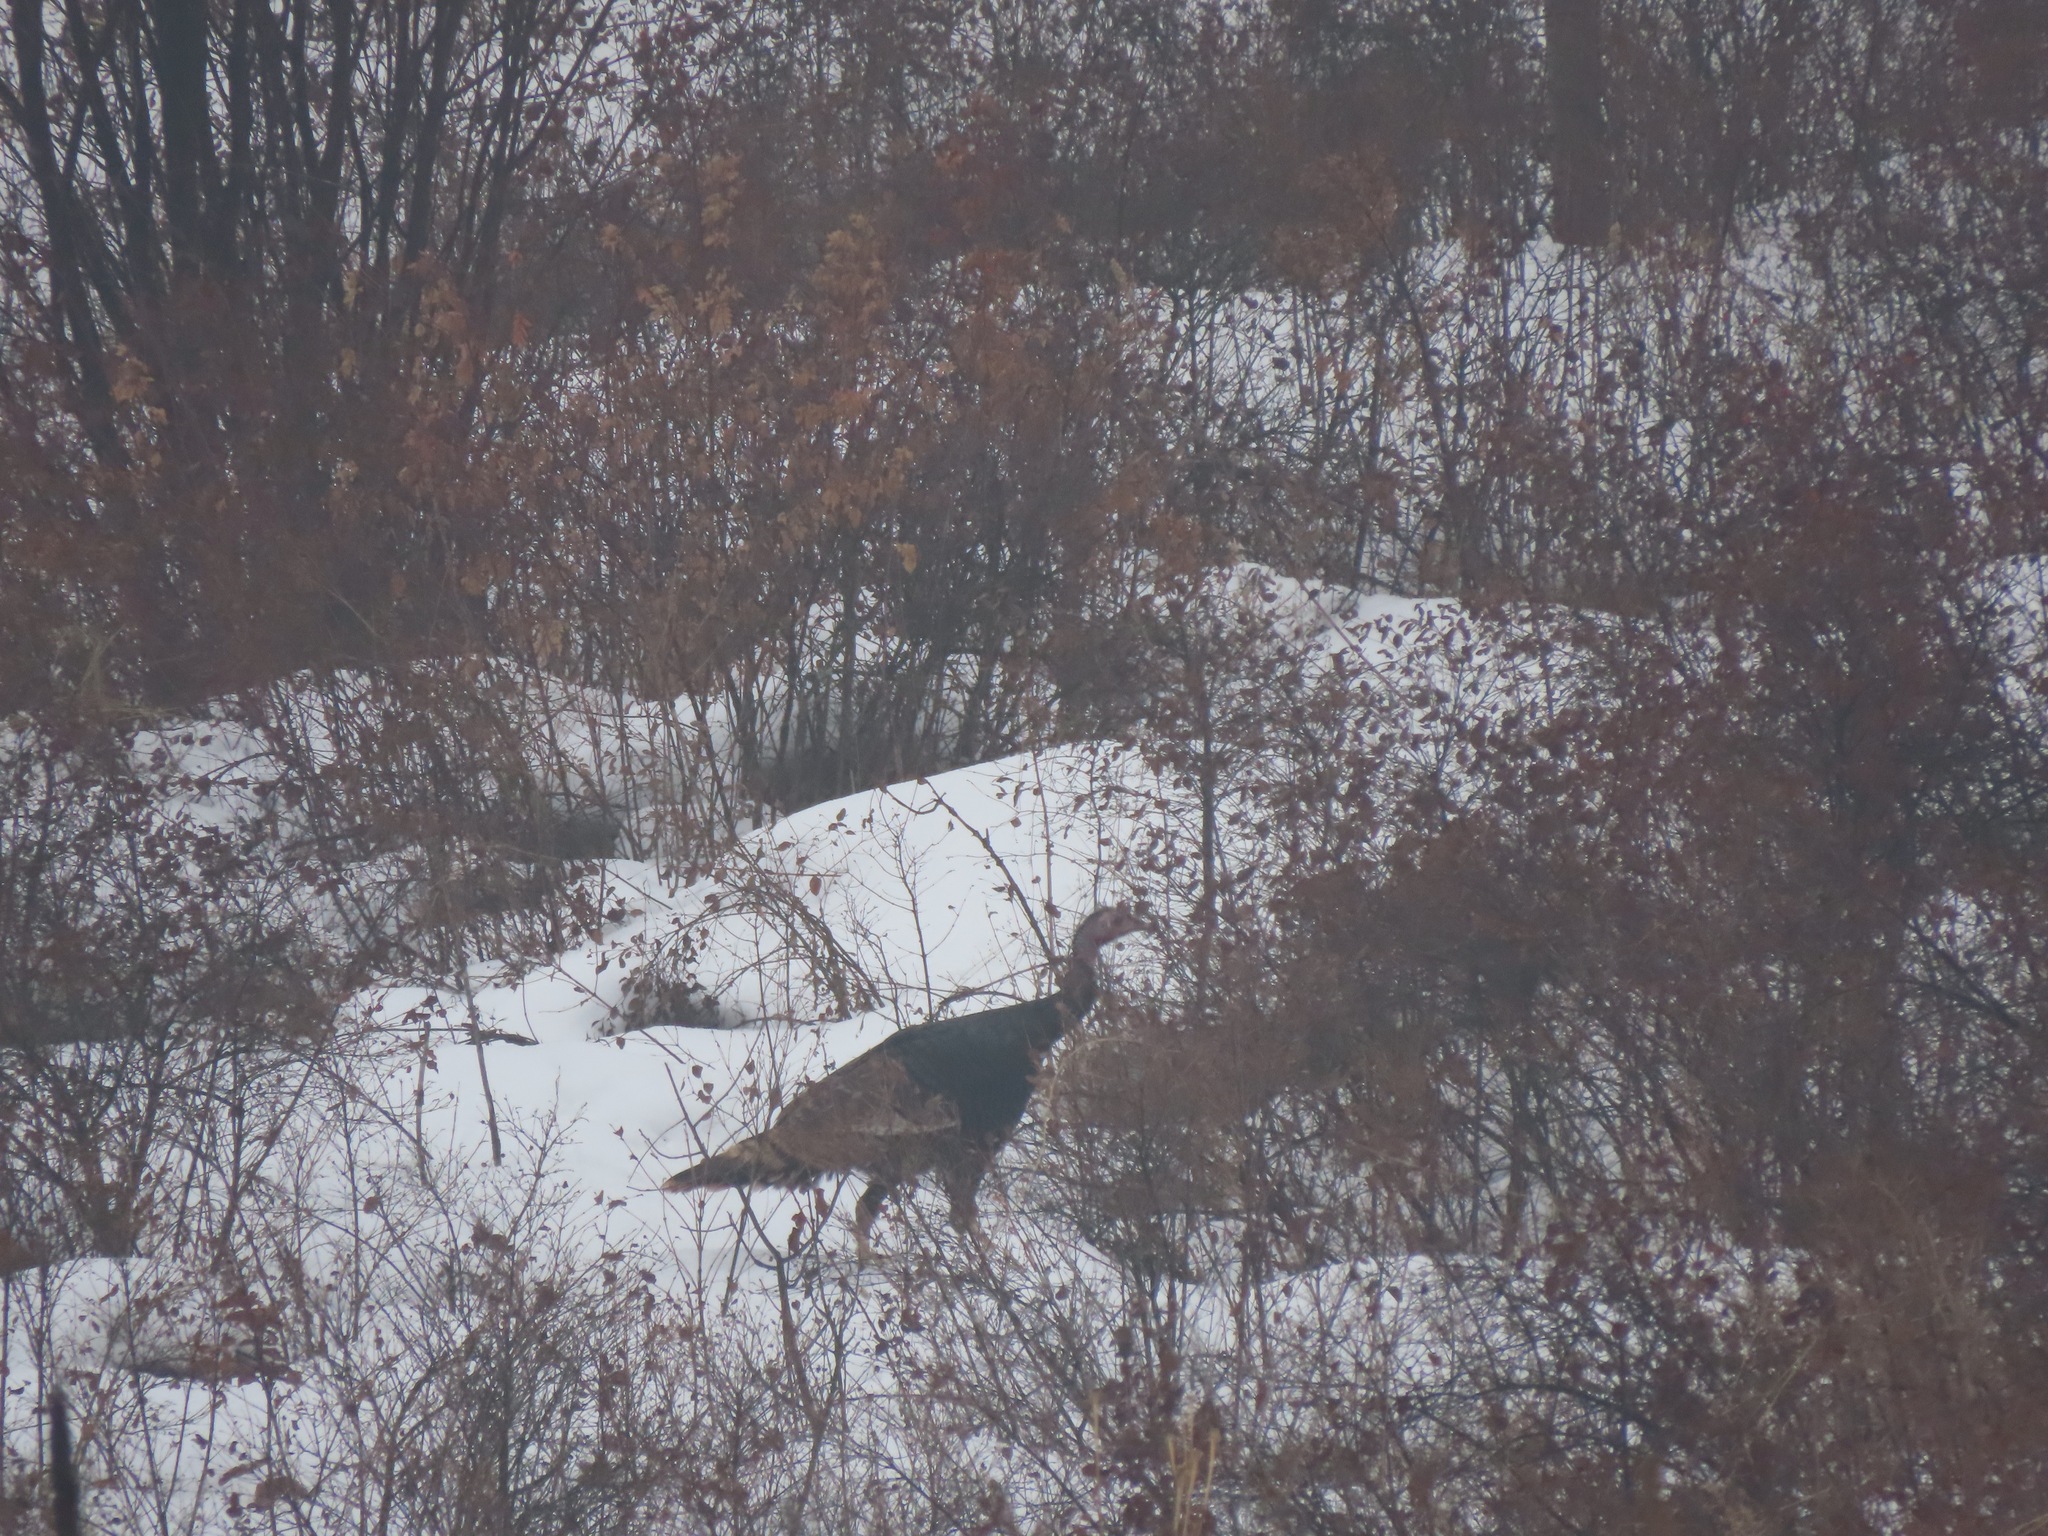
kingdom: Animalia
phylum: Chordata
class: Aves
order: Galliformes
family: Phasianidae
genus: Meleagris
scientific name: Meleagris gallopavo
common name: Wild turkey
